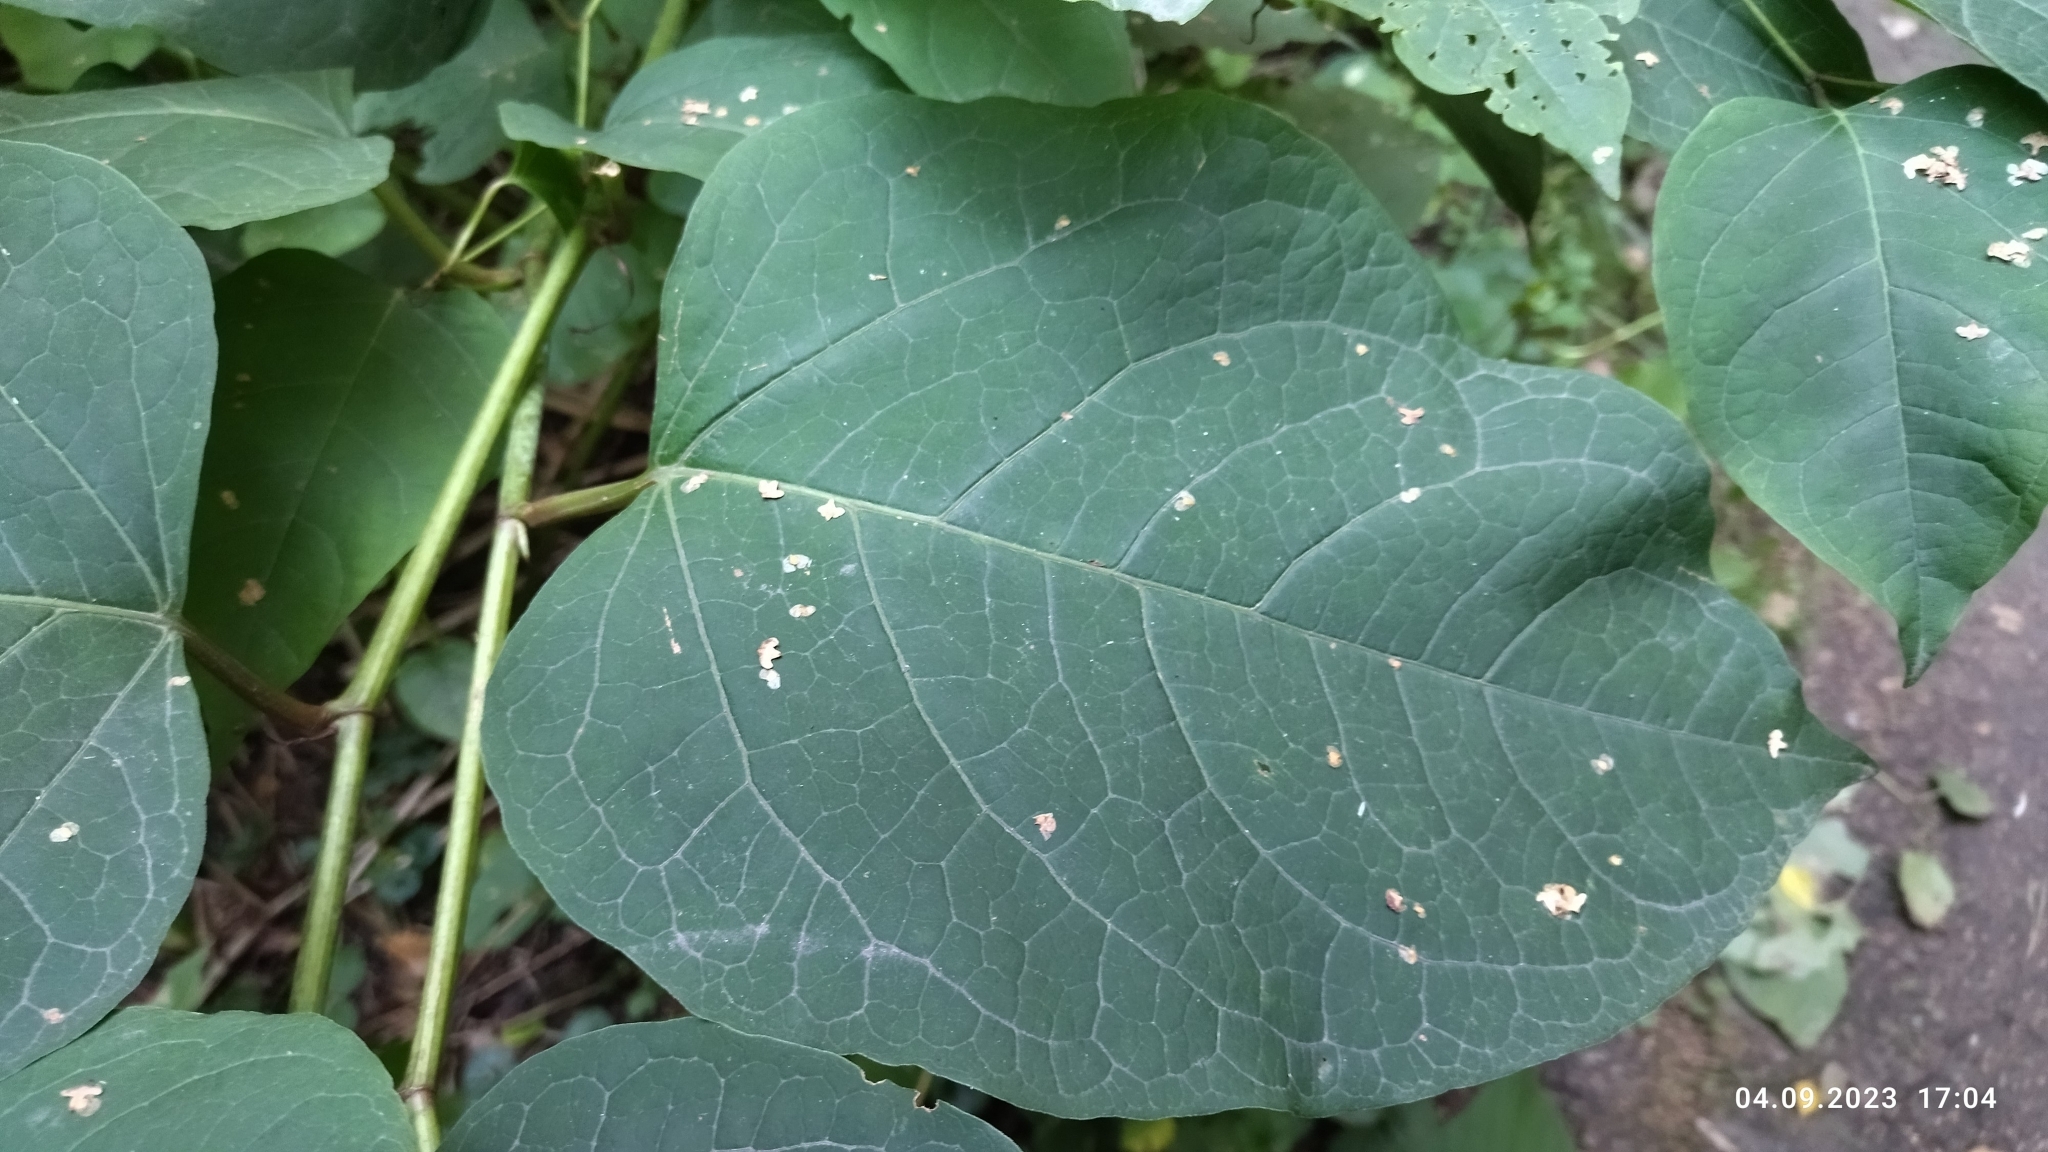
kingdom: Plantae
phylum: Tracheophyta
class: Magnoliopsida
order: Caryophyllales
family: Polygonaceae
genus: Reynoutria
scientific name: Reynoutria bohemica
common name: Bohemian knotweed
